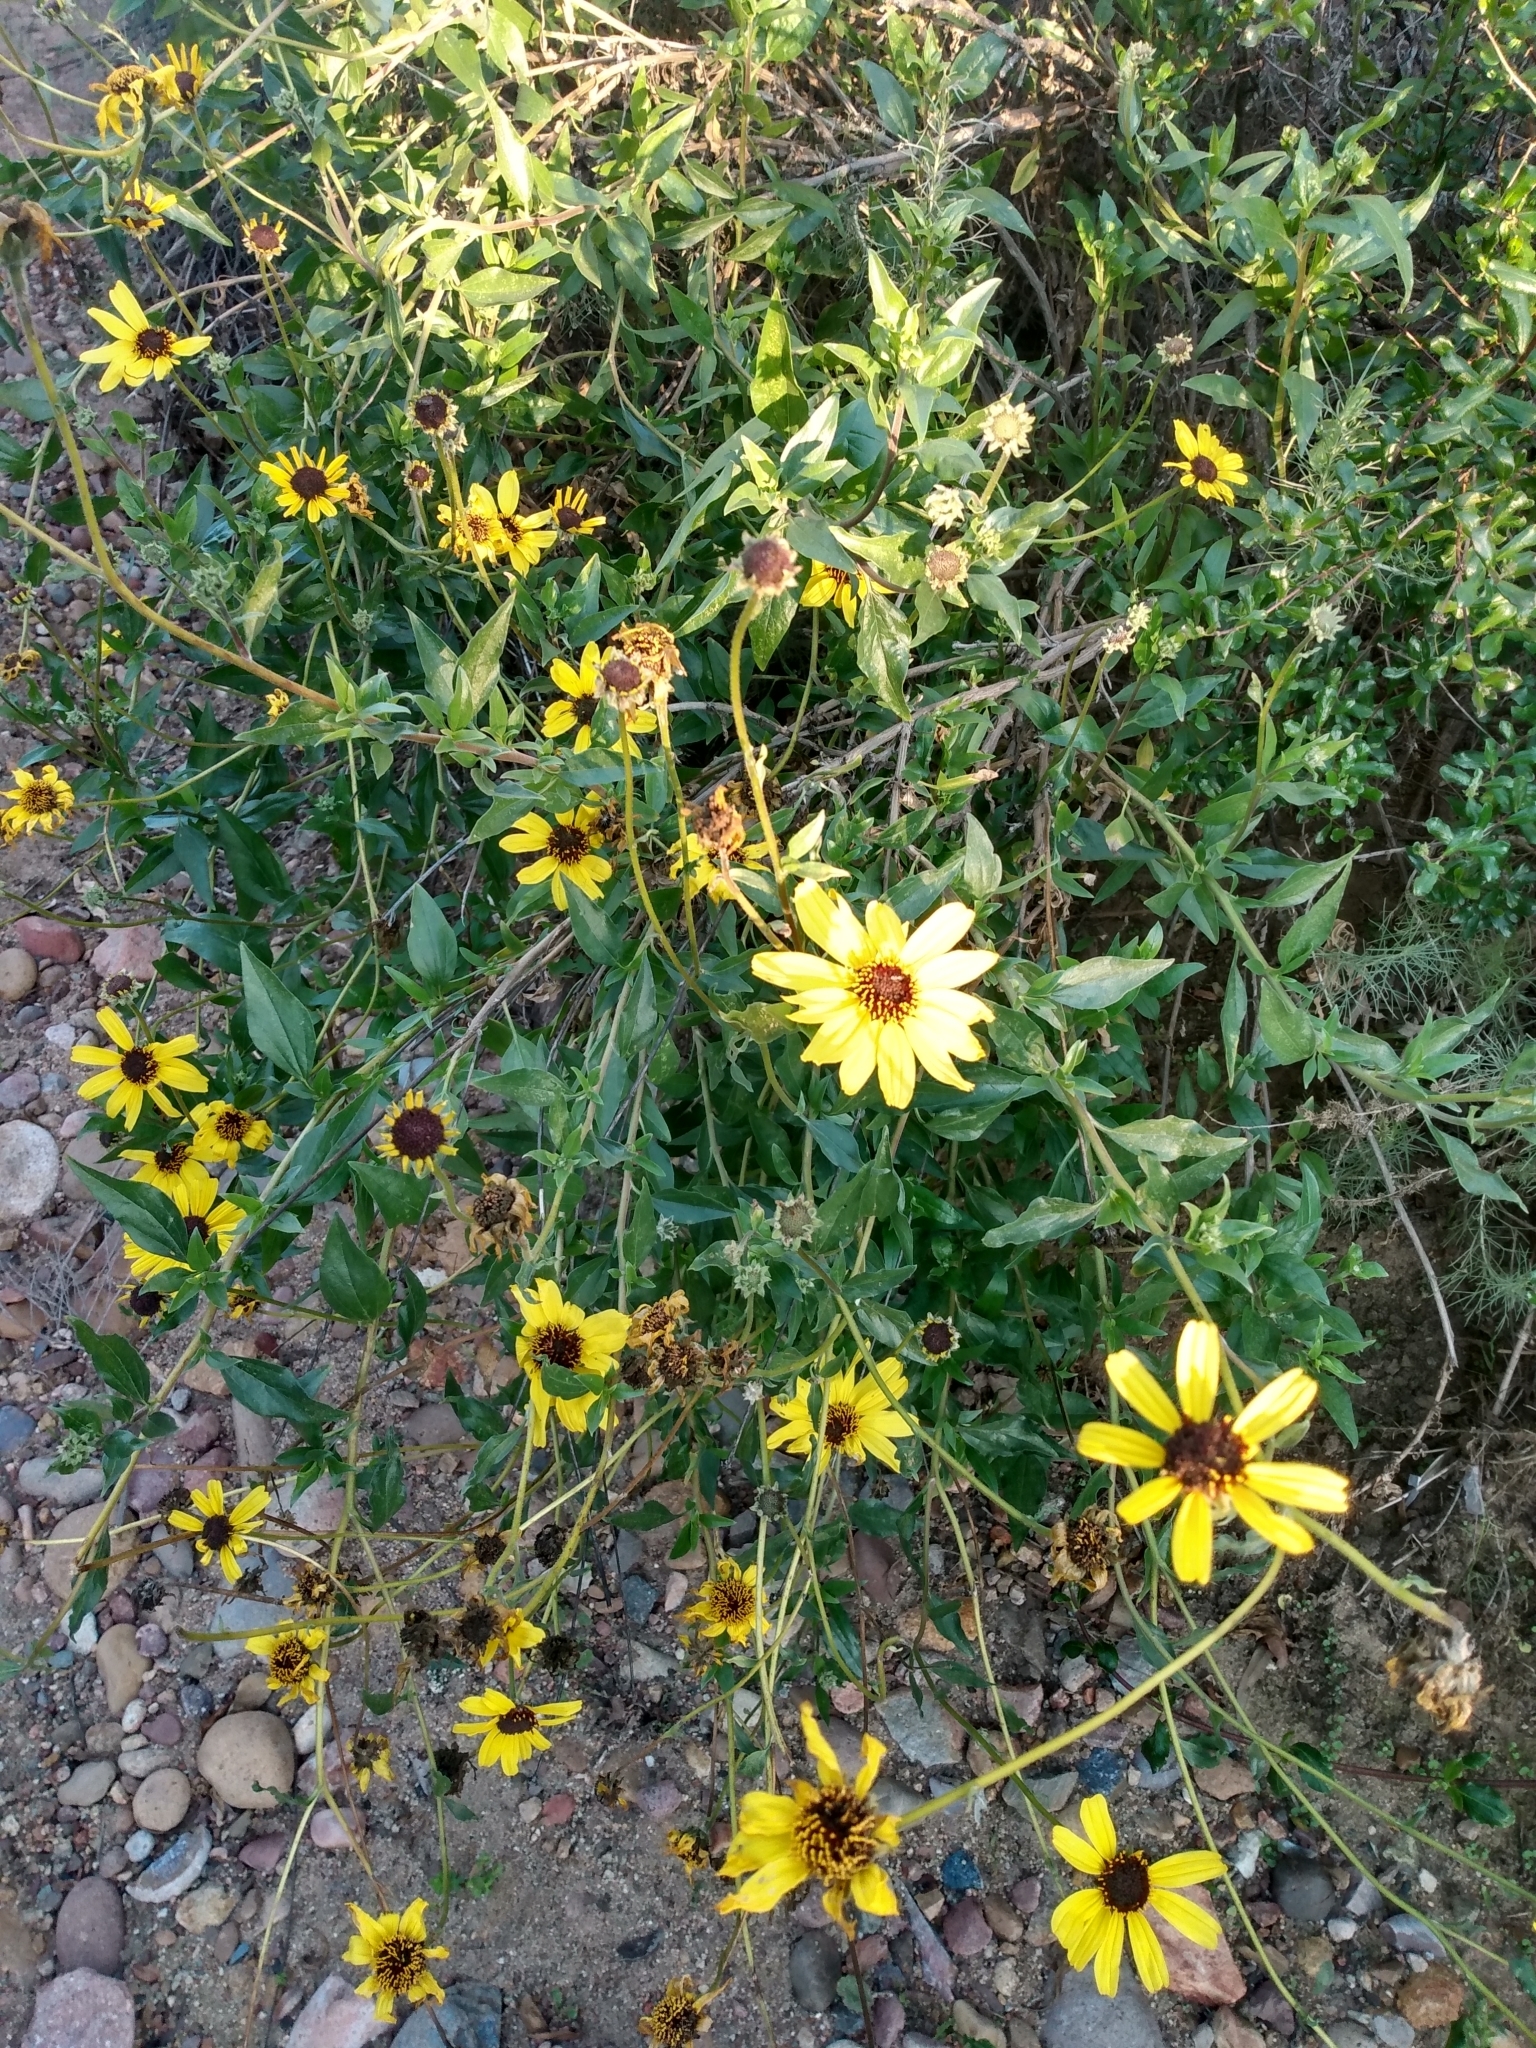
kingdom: Plantae
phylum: Tracheophyta
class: Magnoliopsida
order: Asterales
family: Asteraceae
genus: Encelia
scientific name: Encelia californica
